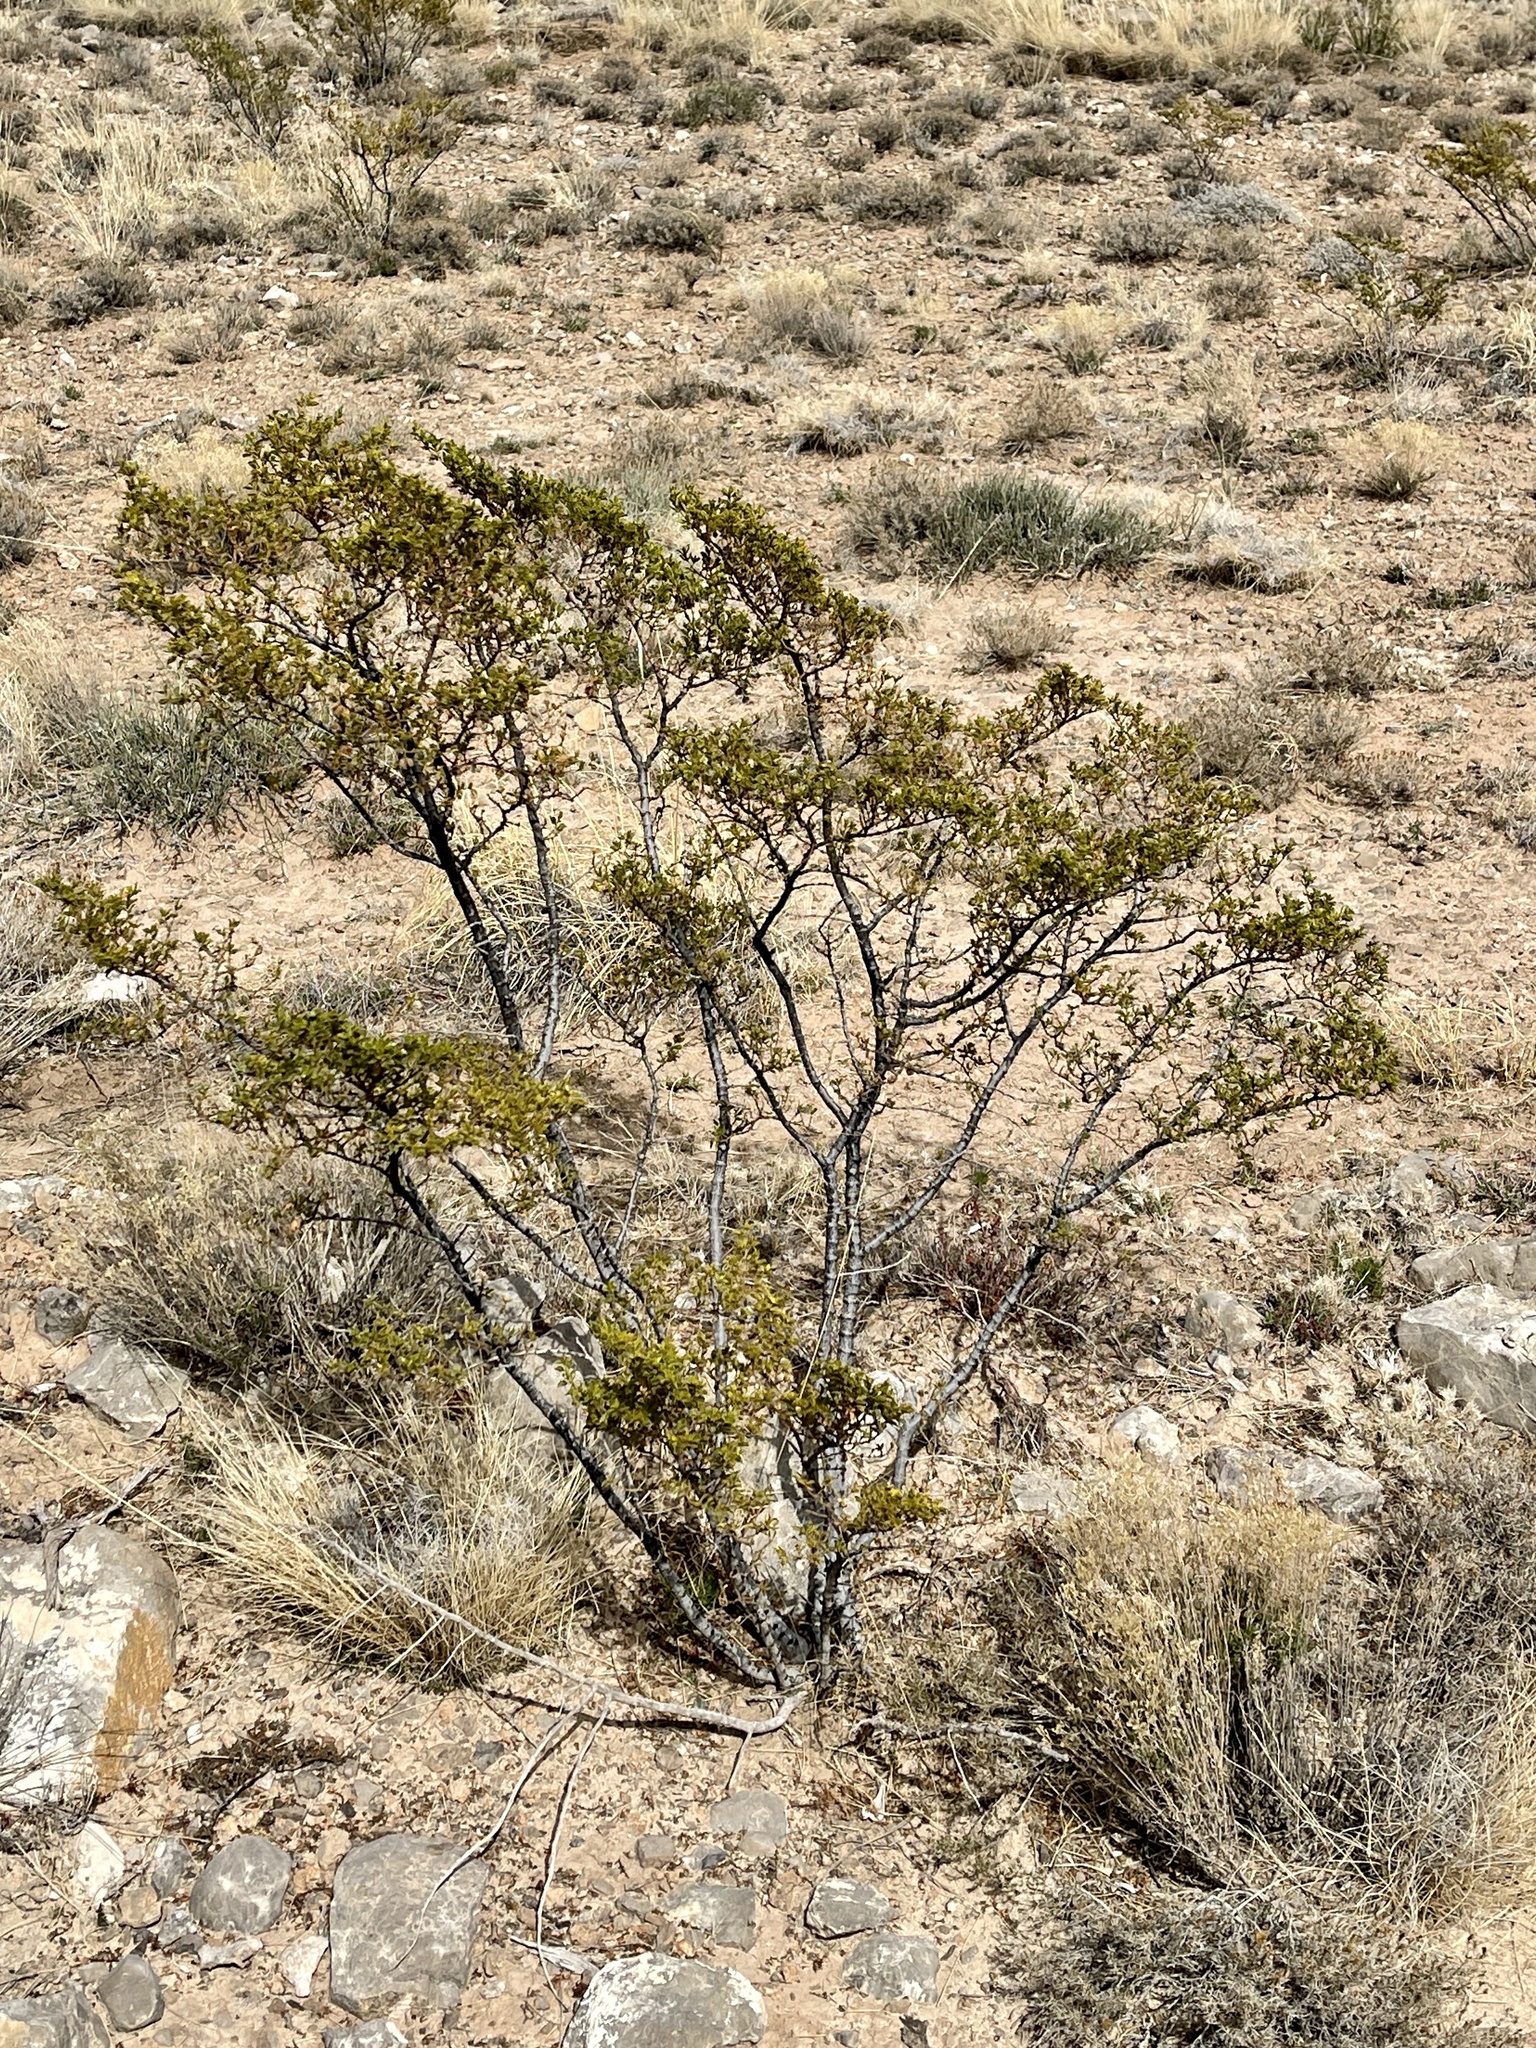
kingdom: Plantae
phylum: Tracheophyta
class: Magnoliopsida
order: Zygophyllales
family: Zygophyllaceae
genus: Larrea
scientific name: Larrea tridentata
